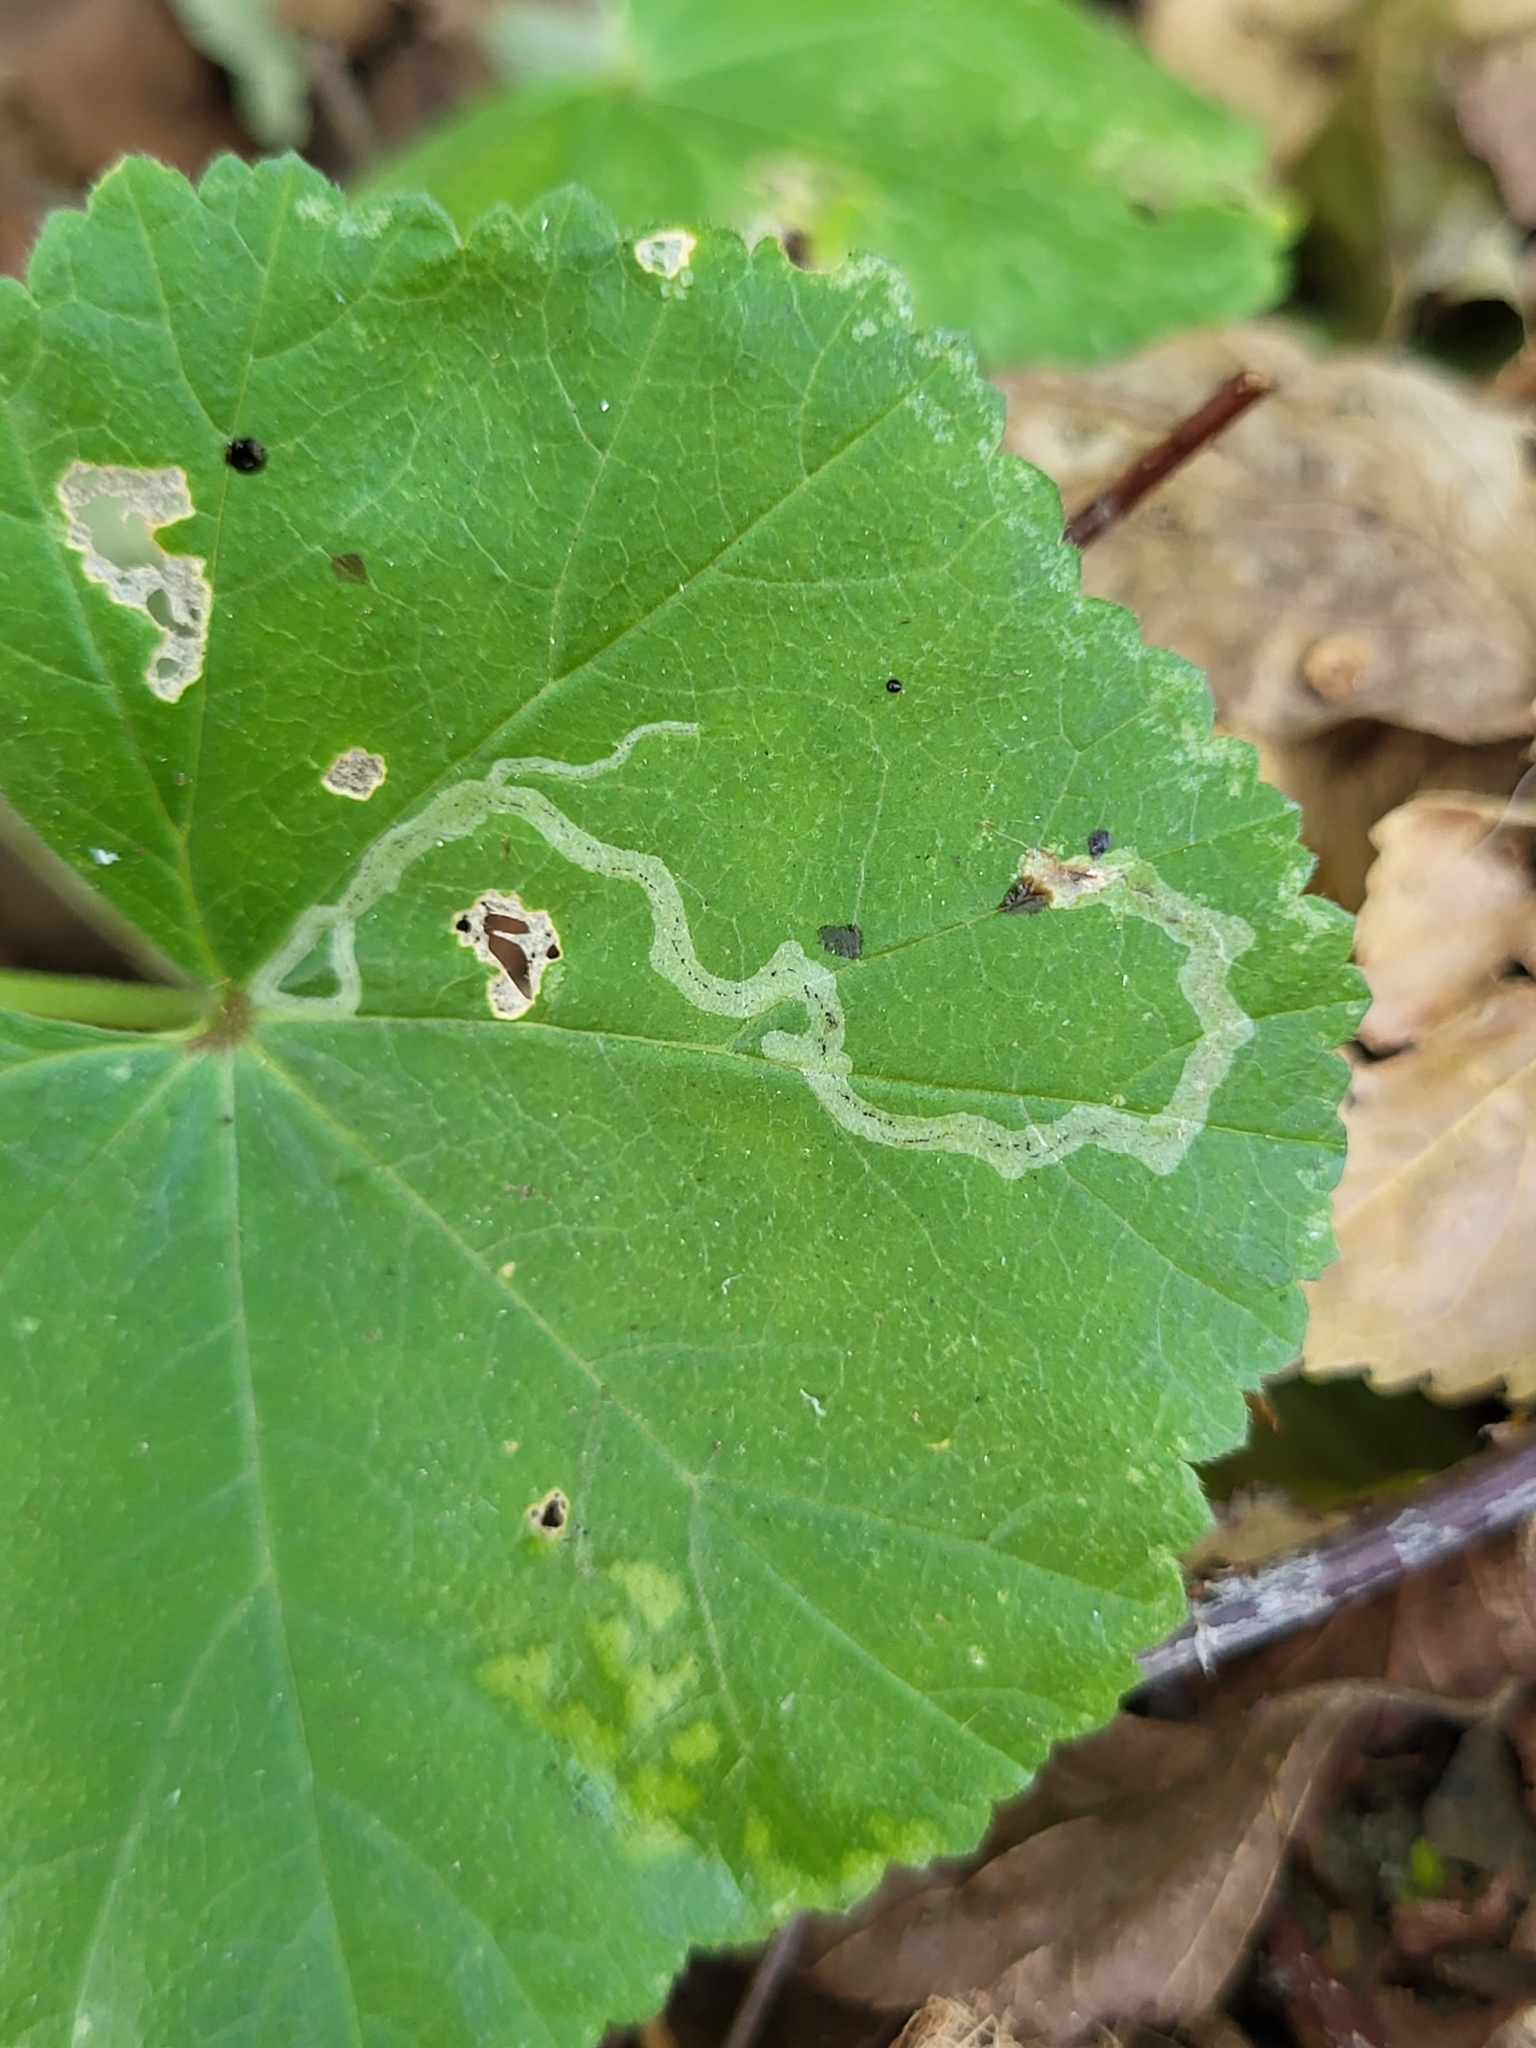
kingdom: Animalia
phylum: Arthropoda
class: Insecta
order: Diptera
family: Agromyzidae
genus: Calycomyza
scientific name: Calycomyza malvae
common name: Mallow leaf miner
